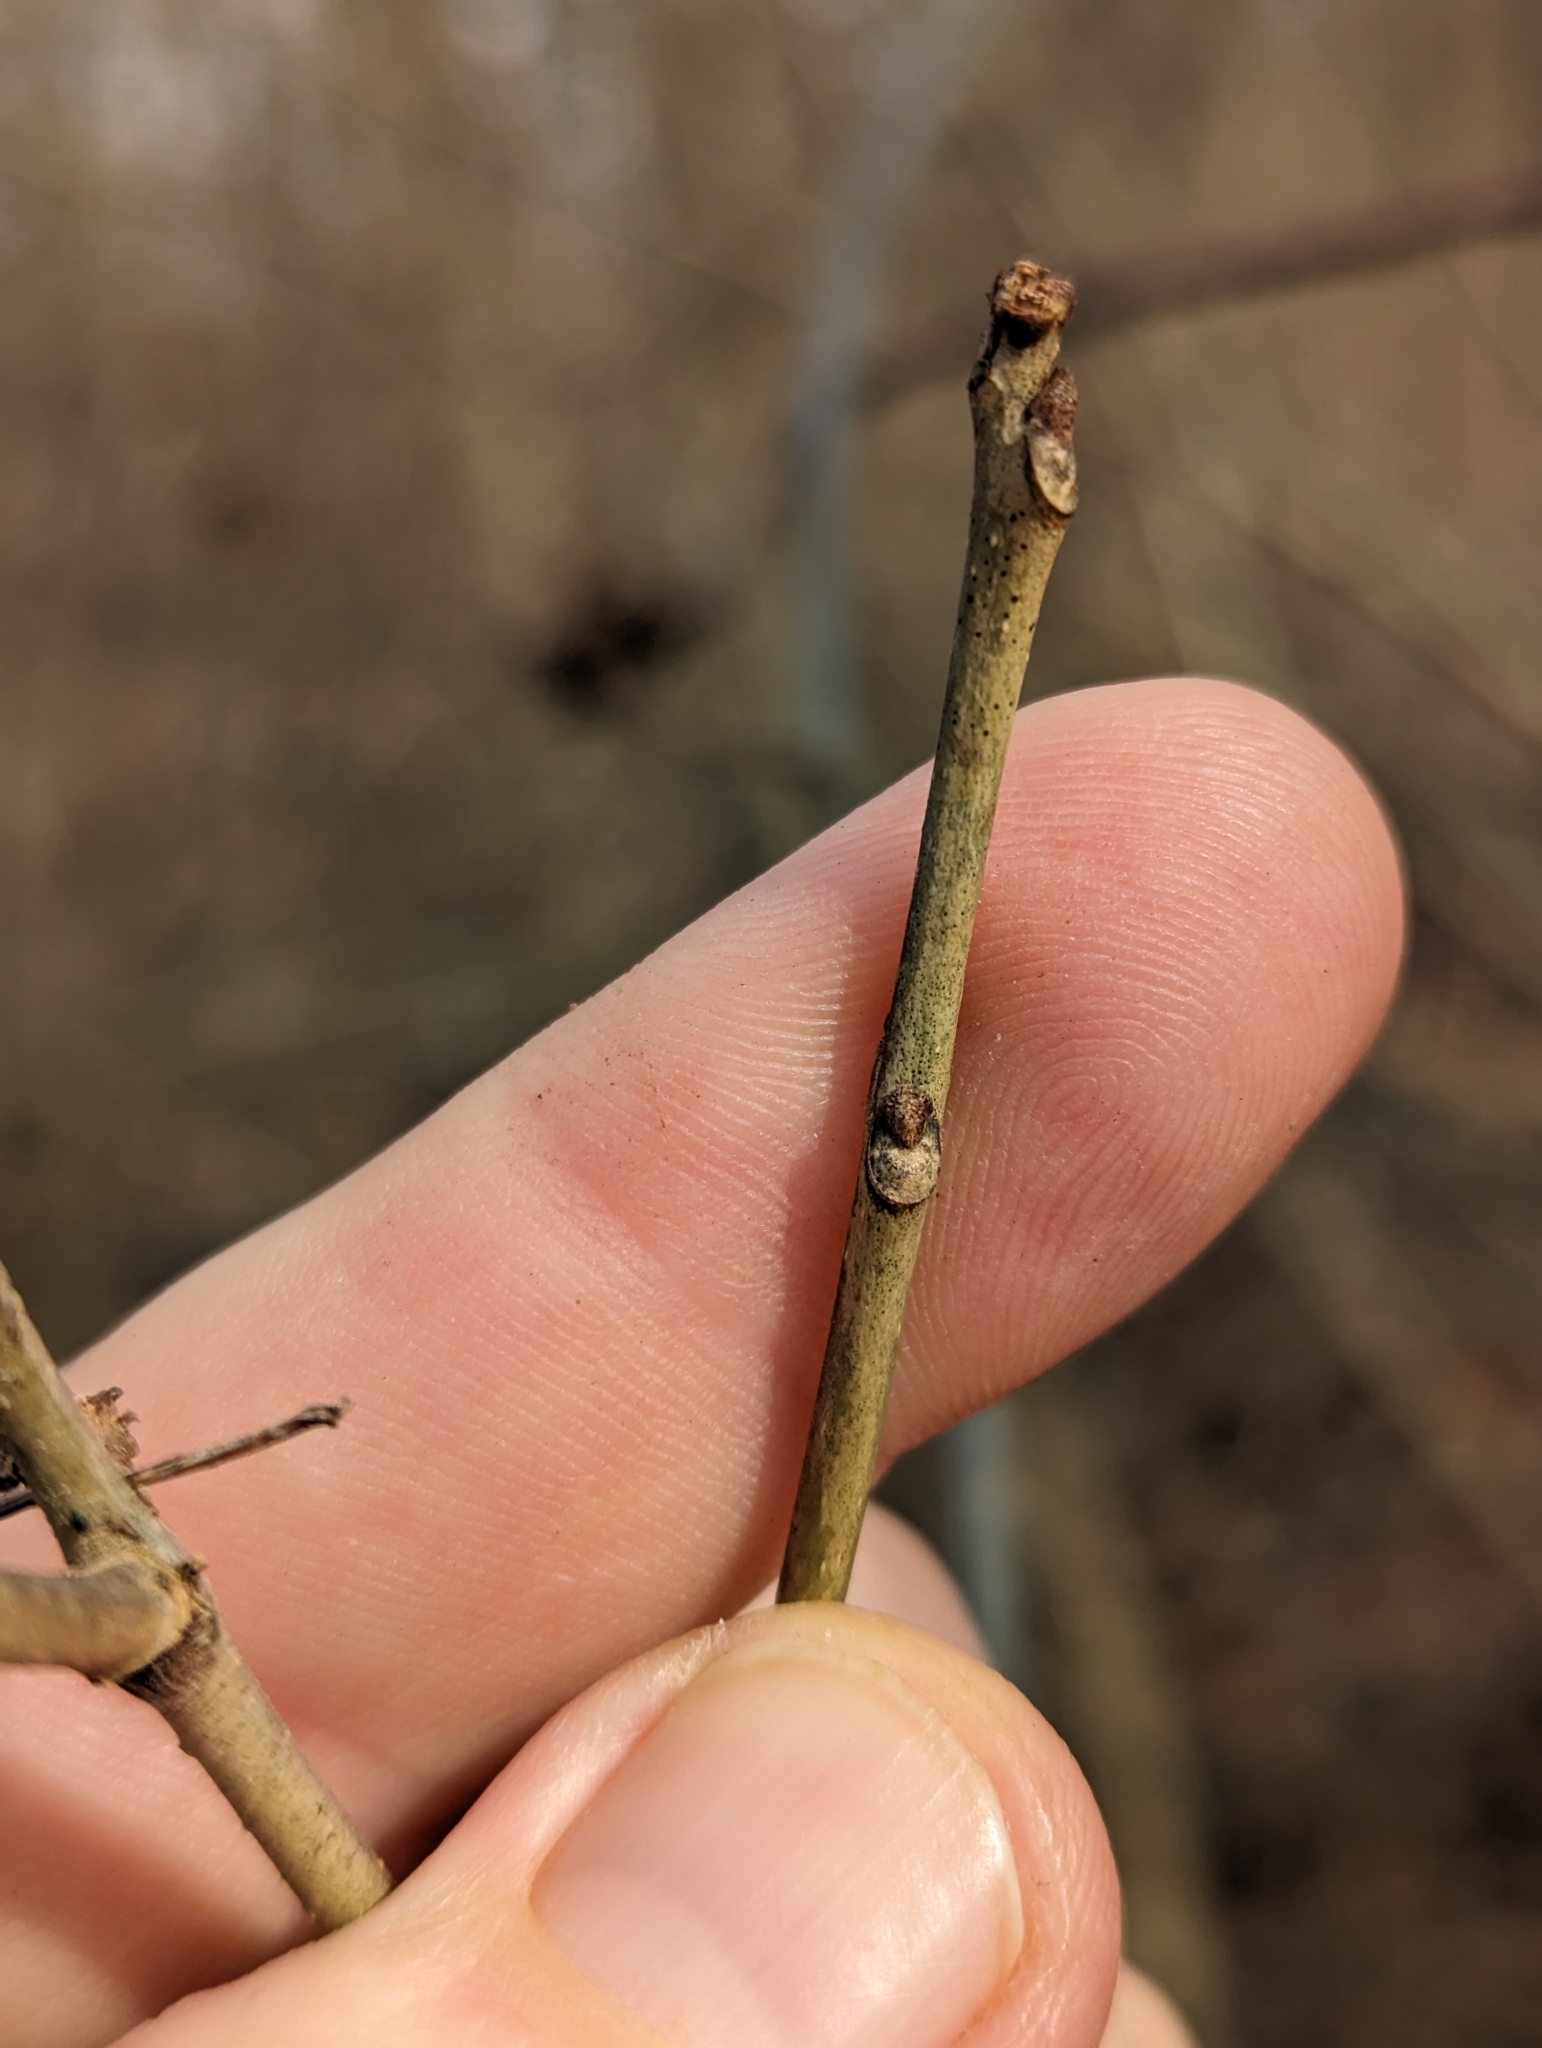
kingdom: Plantae
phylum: Tracheophyta
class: Magnoliopsida
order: Lamiales
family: Oleaceae
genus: Fraxinus
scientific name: Fraxinus americana
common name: White ash
